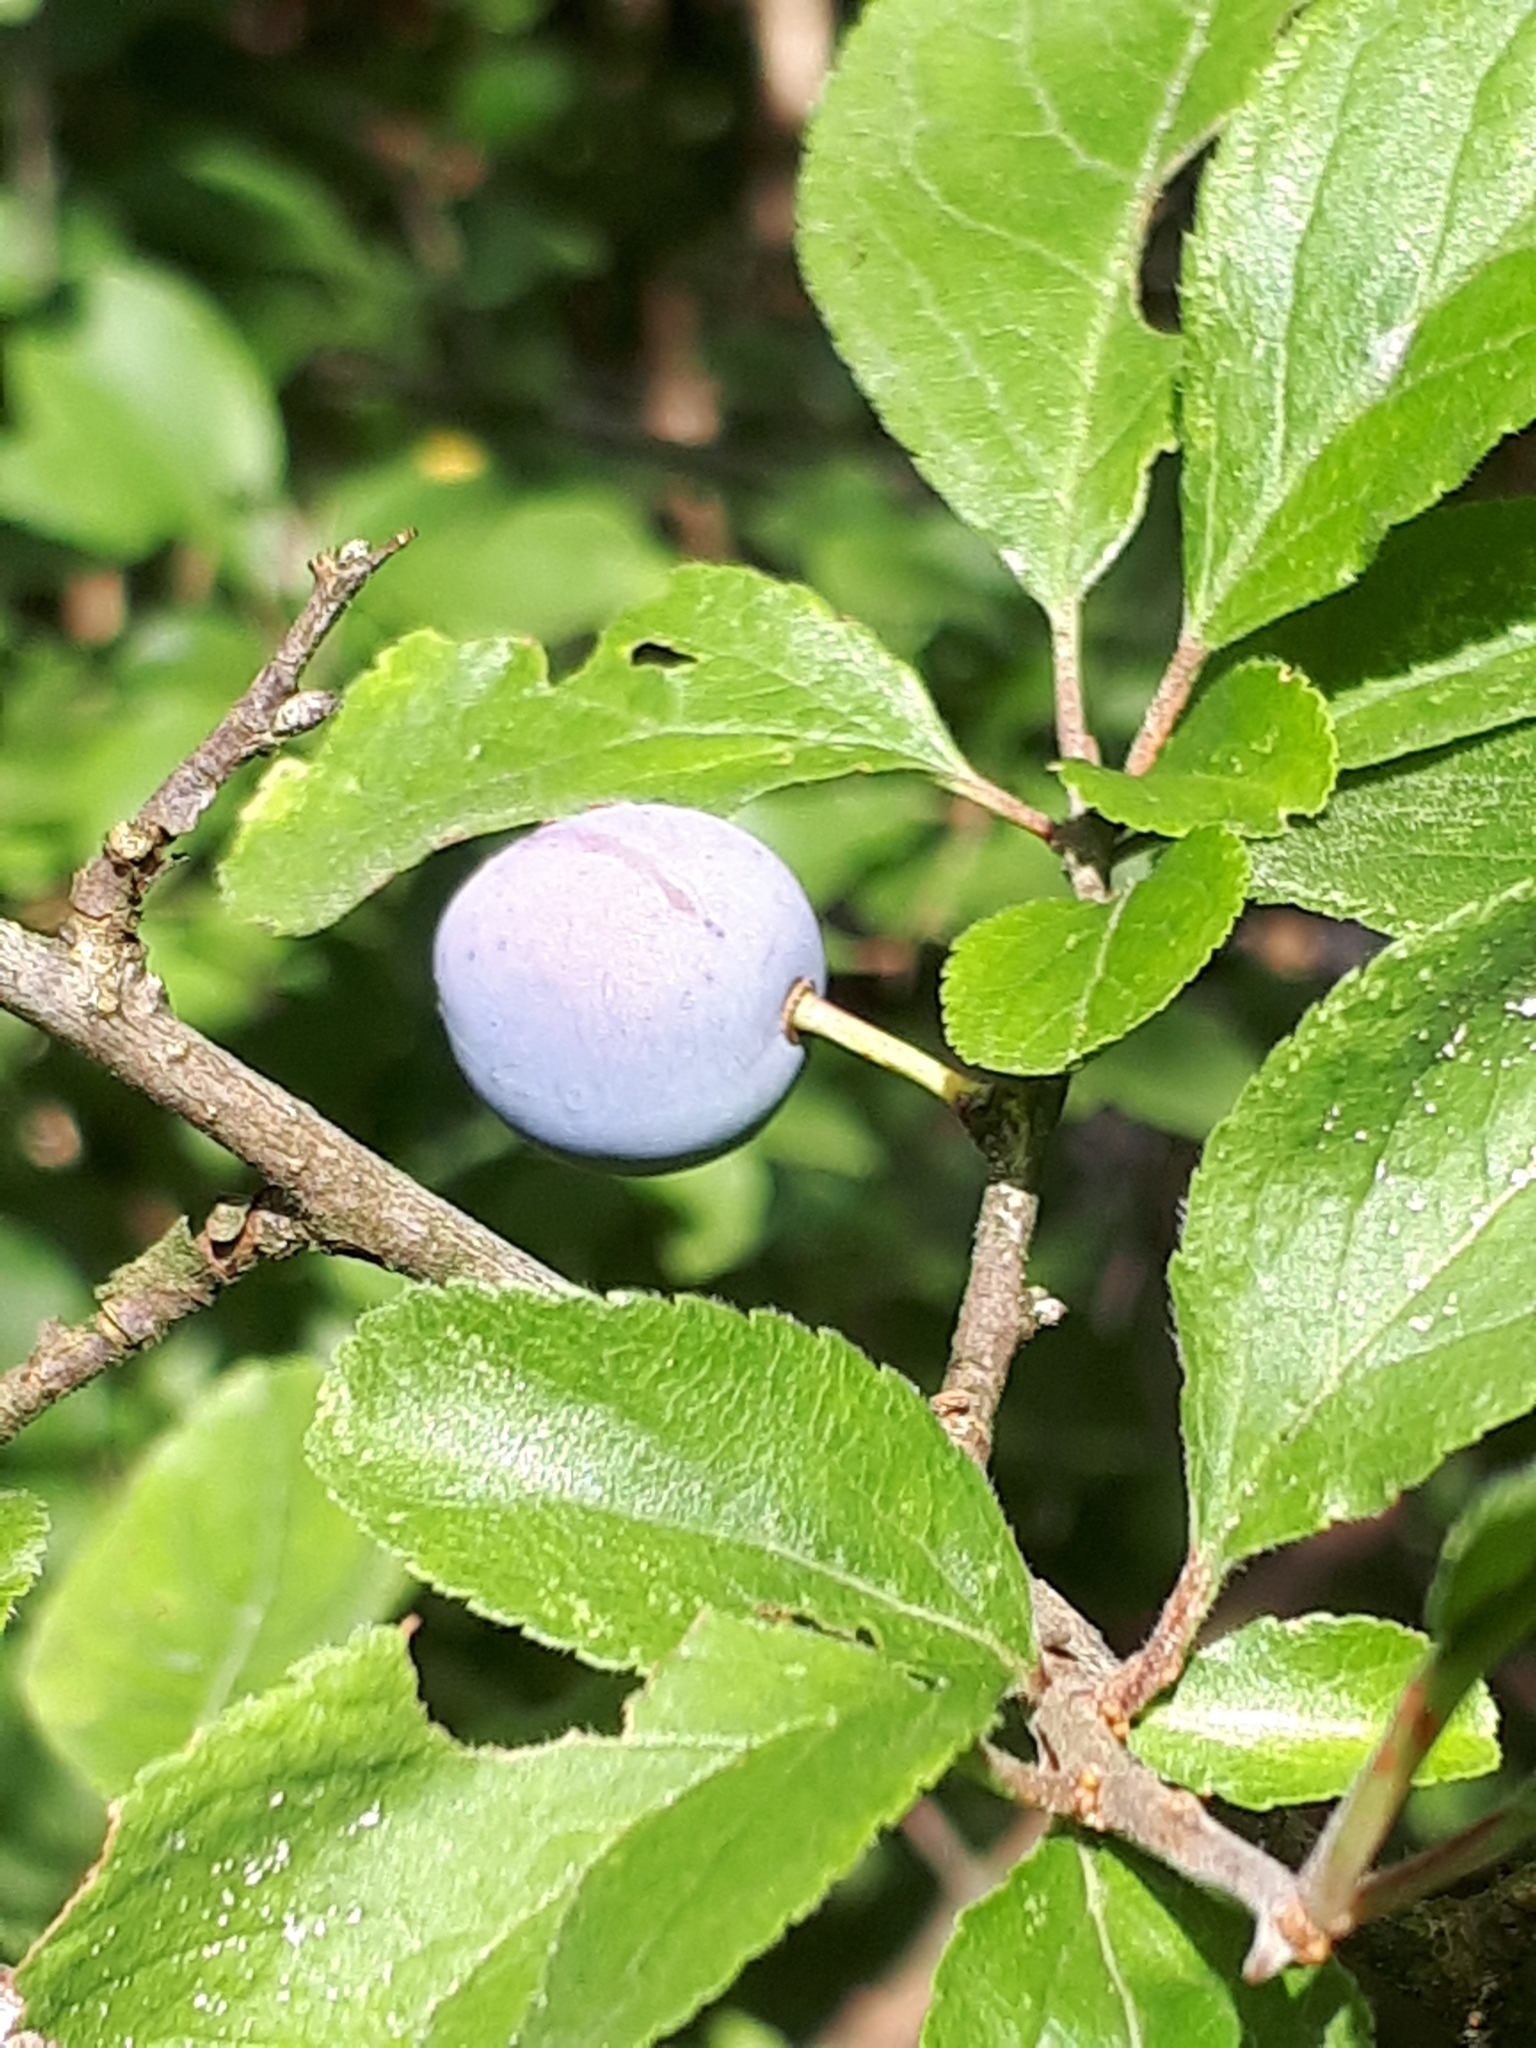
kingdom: Plantae
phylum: Tracheophyta
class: Magnoliopsida
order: Rosales
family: Rosaceae
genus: Prunus
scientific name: Prunus spinosa
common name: Blackthorn
